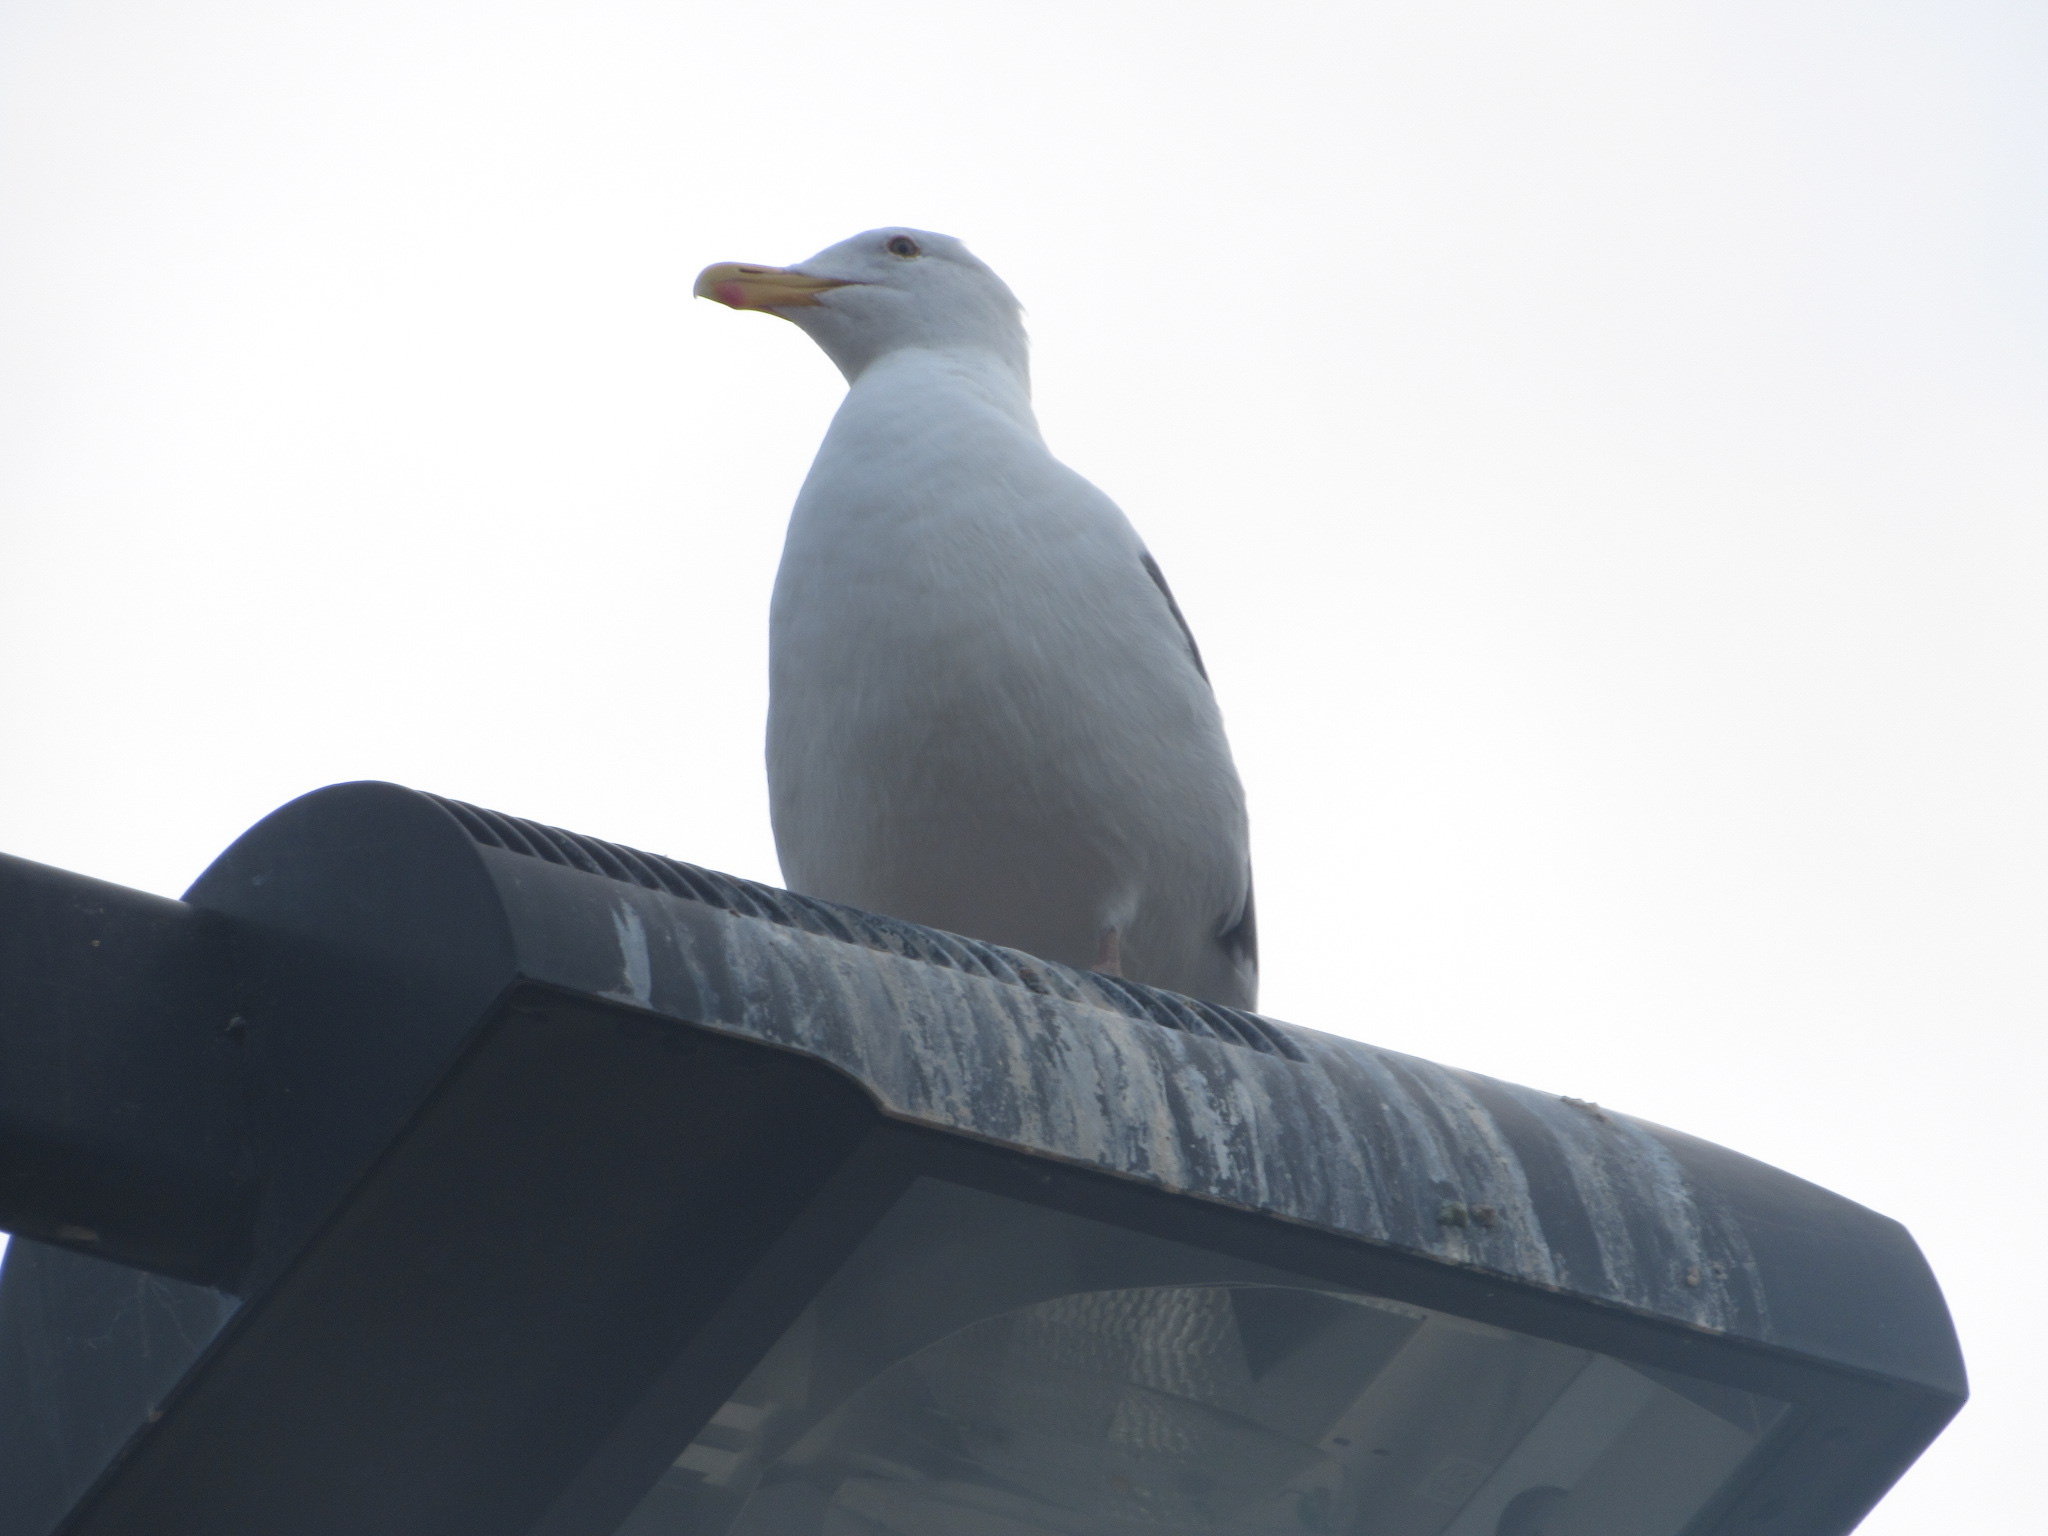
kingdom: Animalia
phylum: Chordata
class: Aves
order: Charadriiformes
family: Laridae
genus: Larus
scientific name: Larus occidentalis
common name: Western gull
